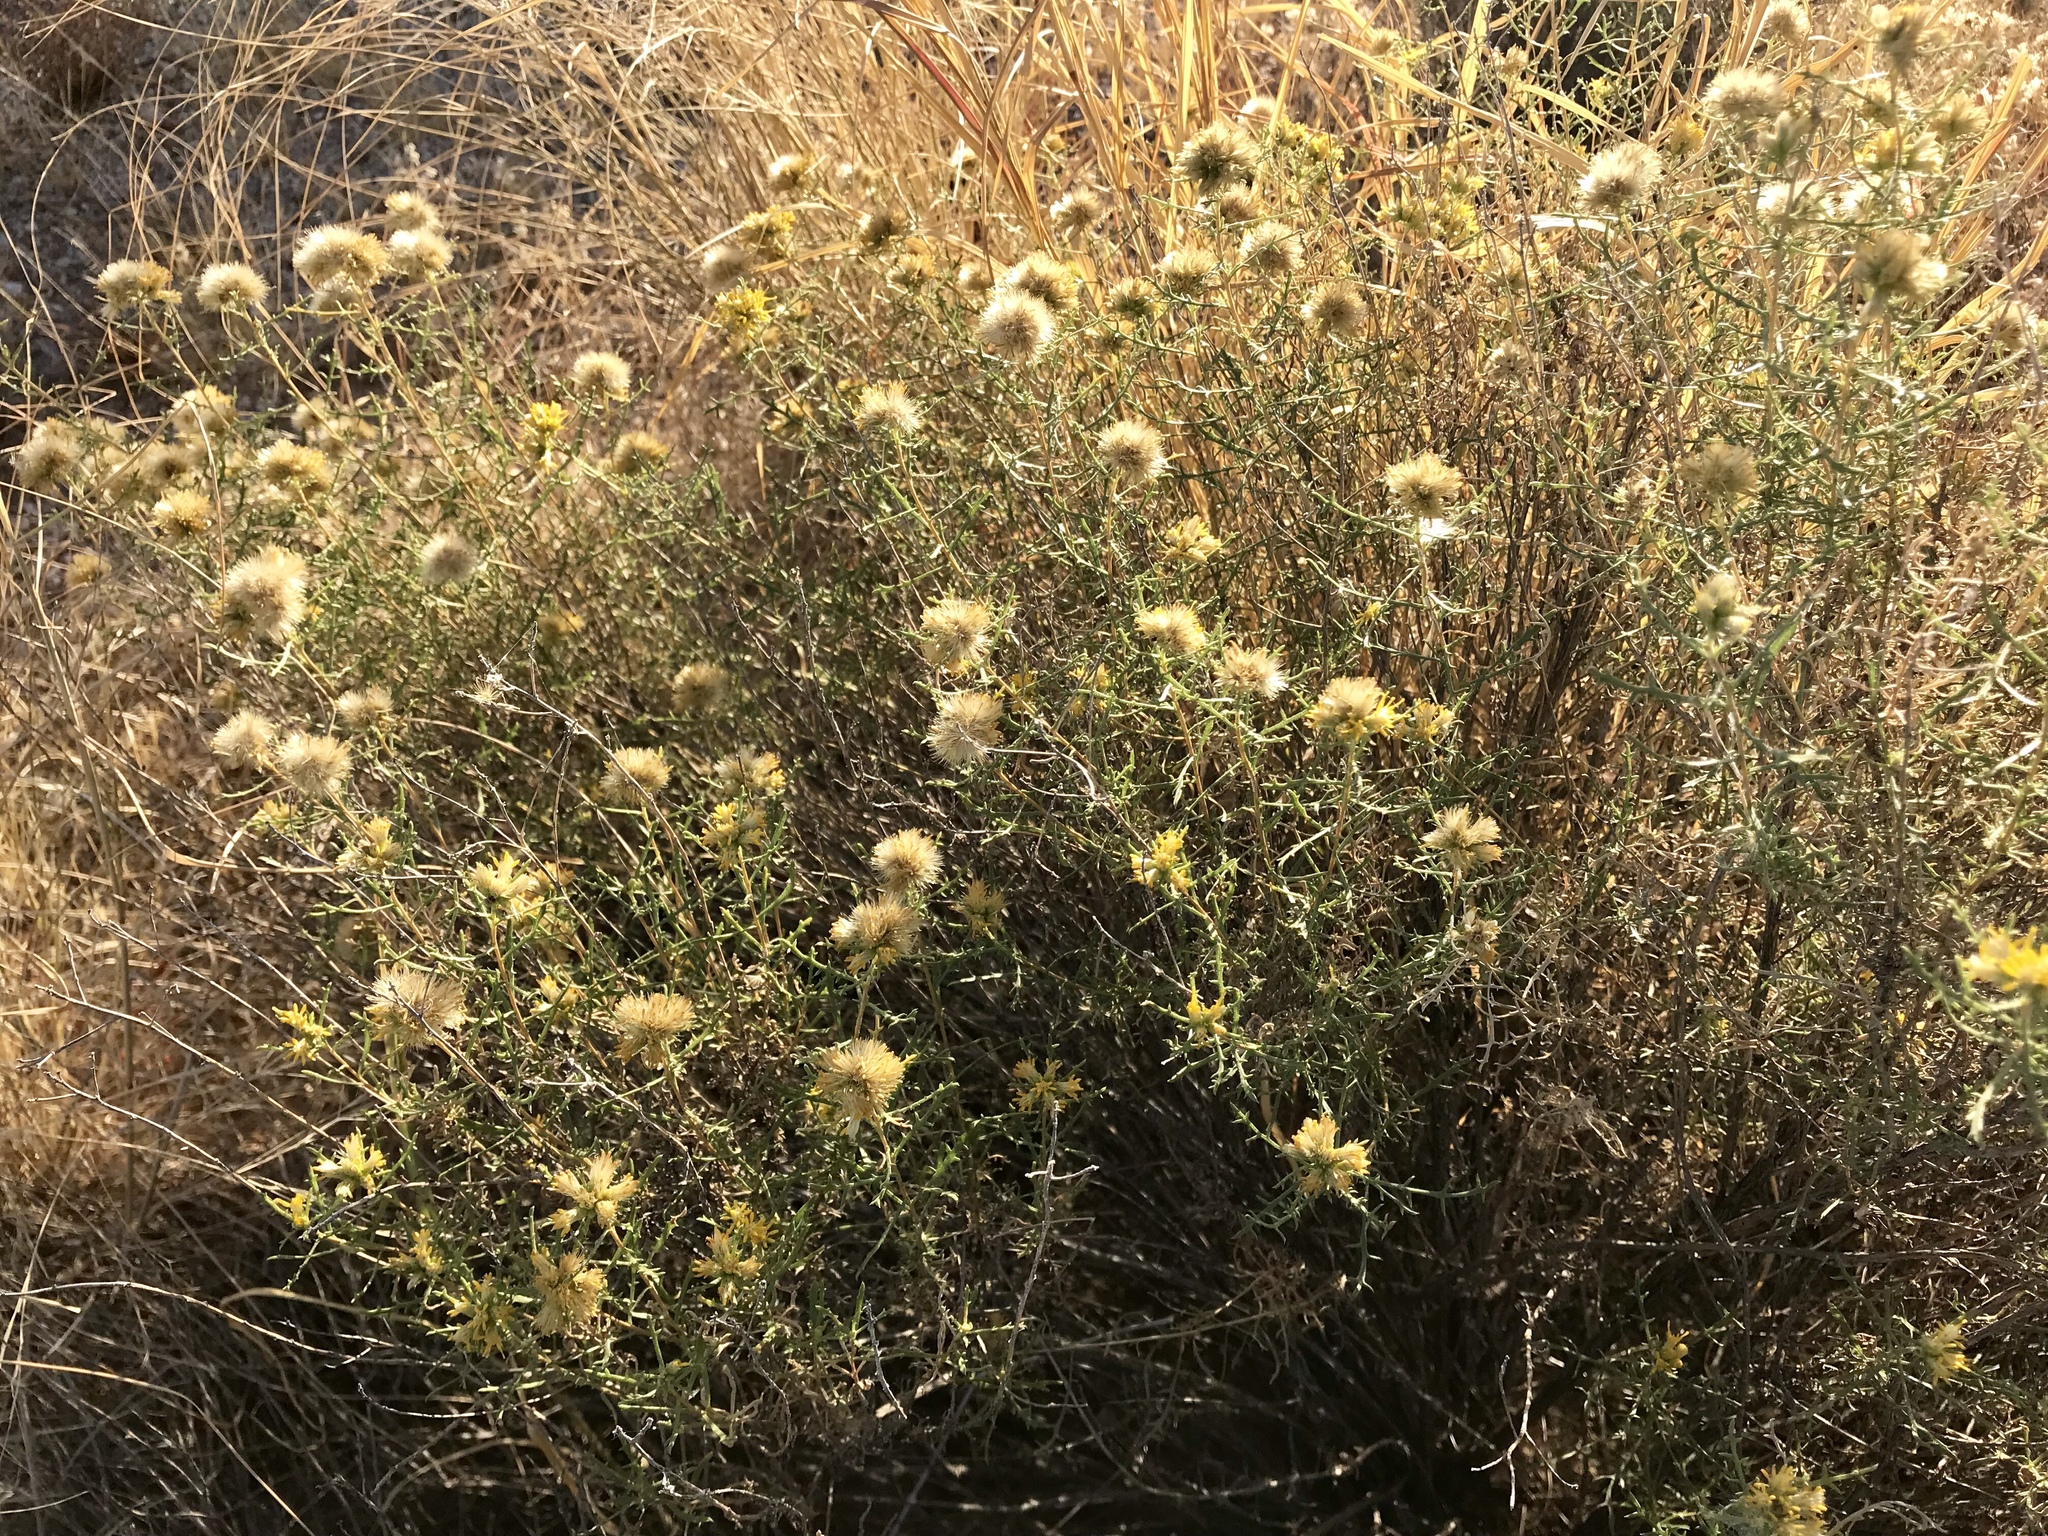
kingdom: Plantae
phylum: Tracheophyta
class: Magnoliopsida
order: Asterales
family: Asteraceae
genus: Isocoma
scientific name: Isocoma tenuisecta
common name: Burroweed
